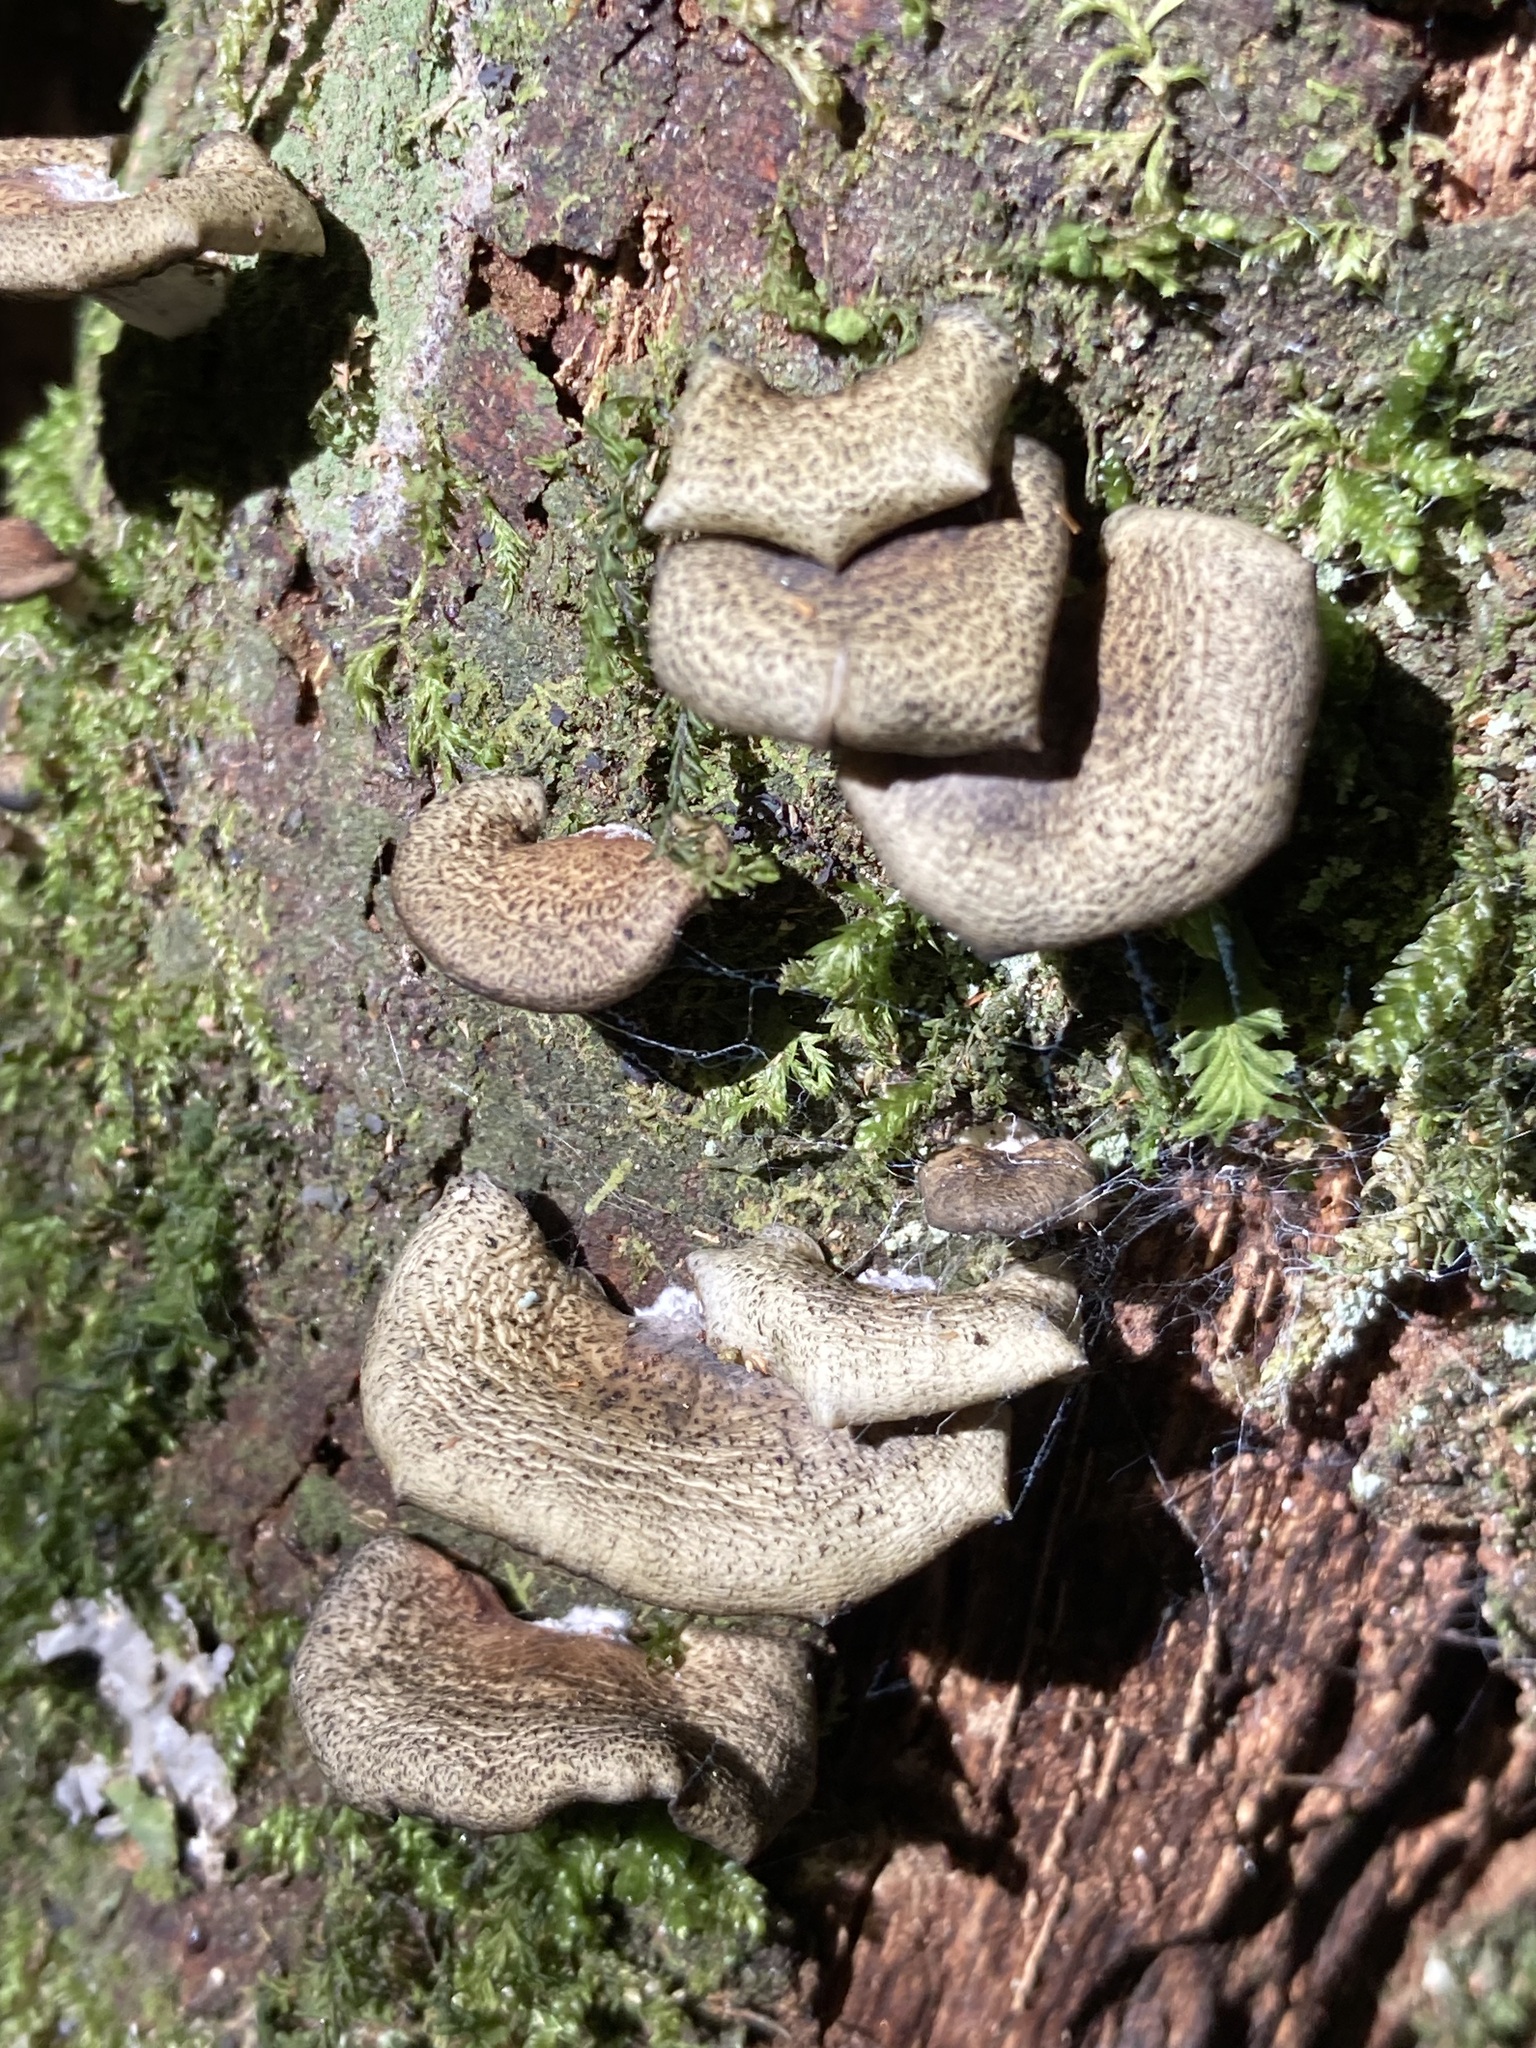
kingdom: Fungi
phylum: Basidiomycota
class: Agaricomycetes
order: Agaricales
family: Mycenaceae
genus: Panellus
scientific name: Panellus longinquus
